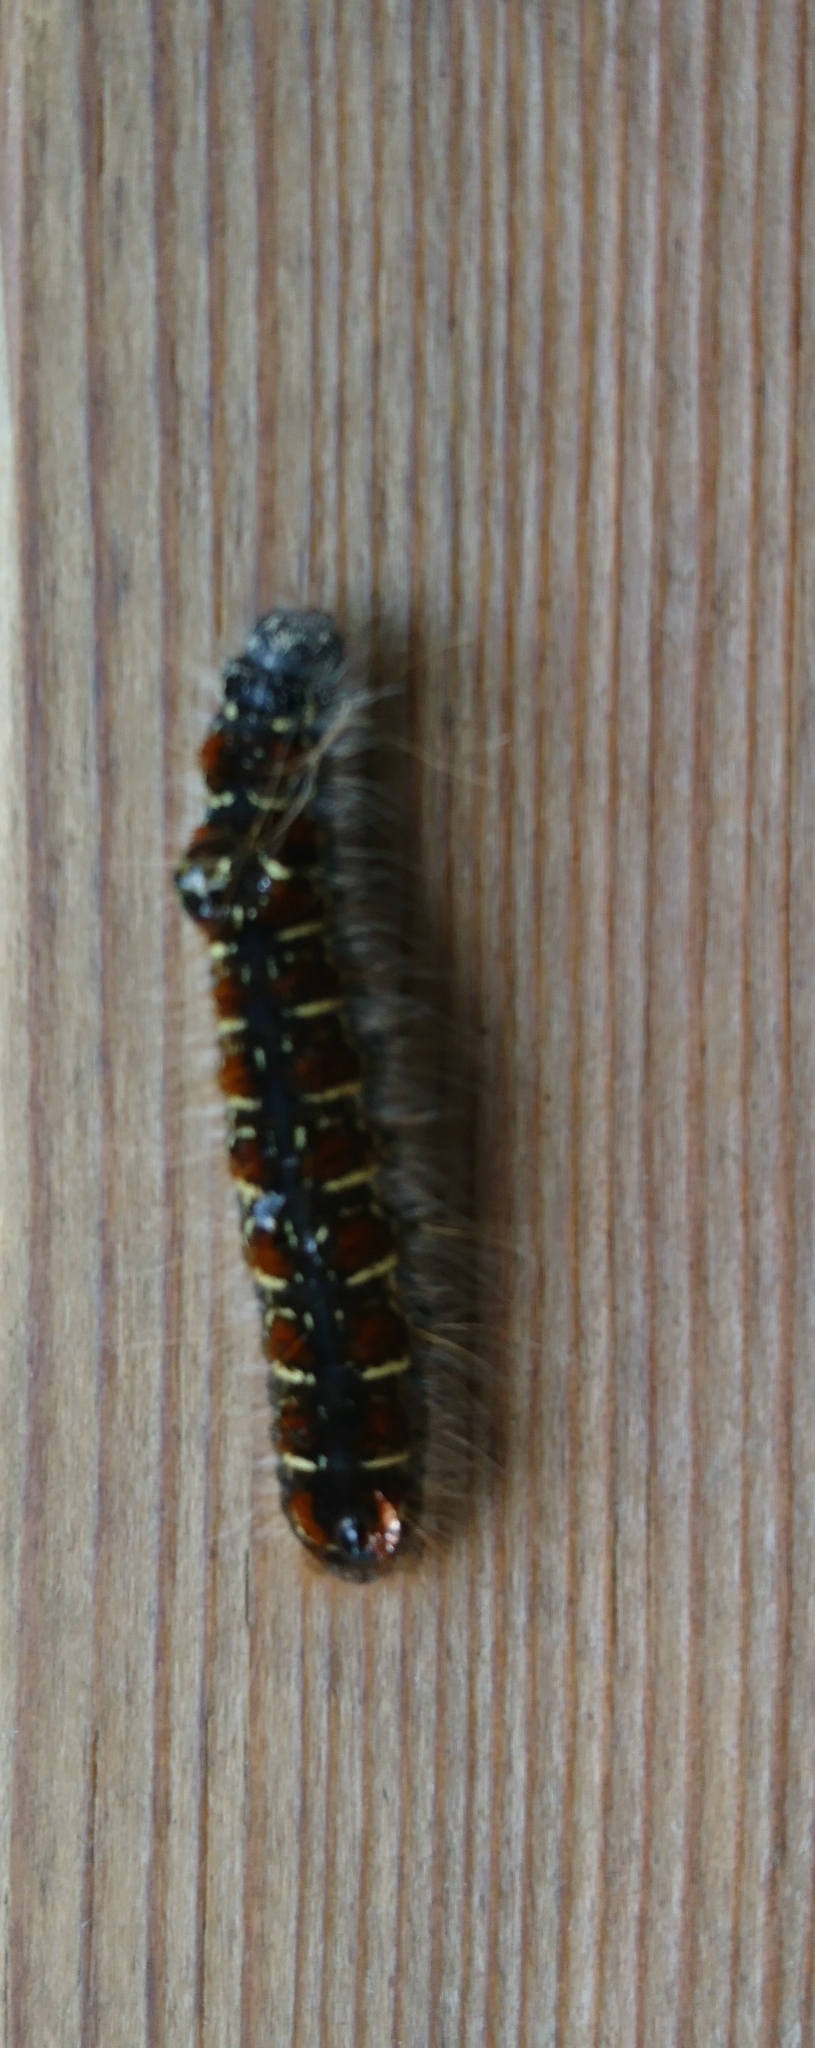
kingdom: Animalia
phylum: Arthropoda
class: Insecta
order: Lepidoptera
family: Lasiocampidae
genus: Eriogaster
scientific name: Eriogaster lanestris
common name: Small eggar
